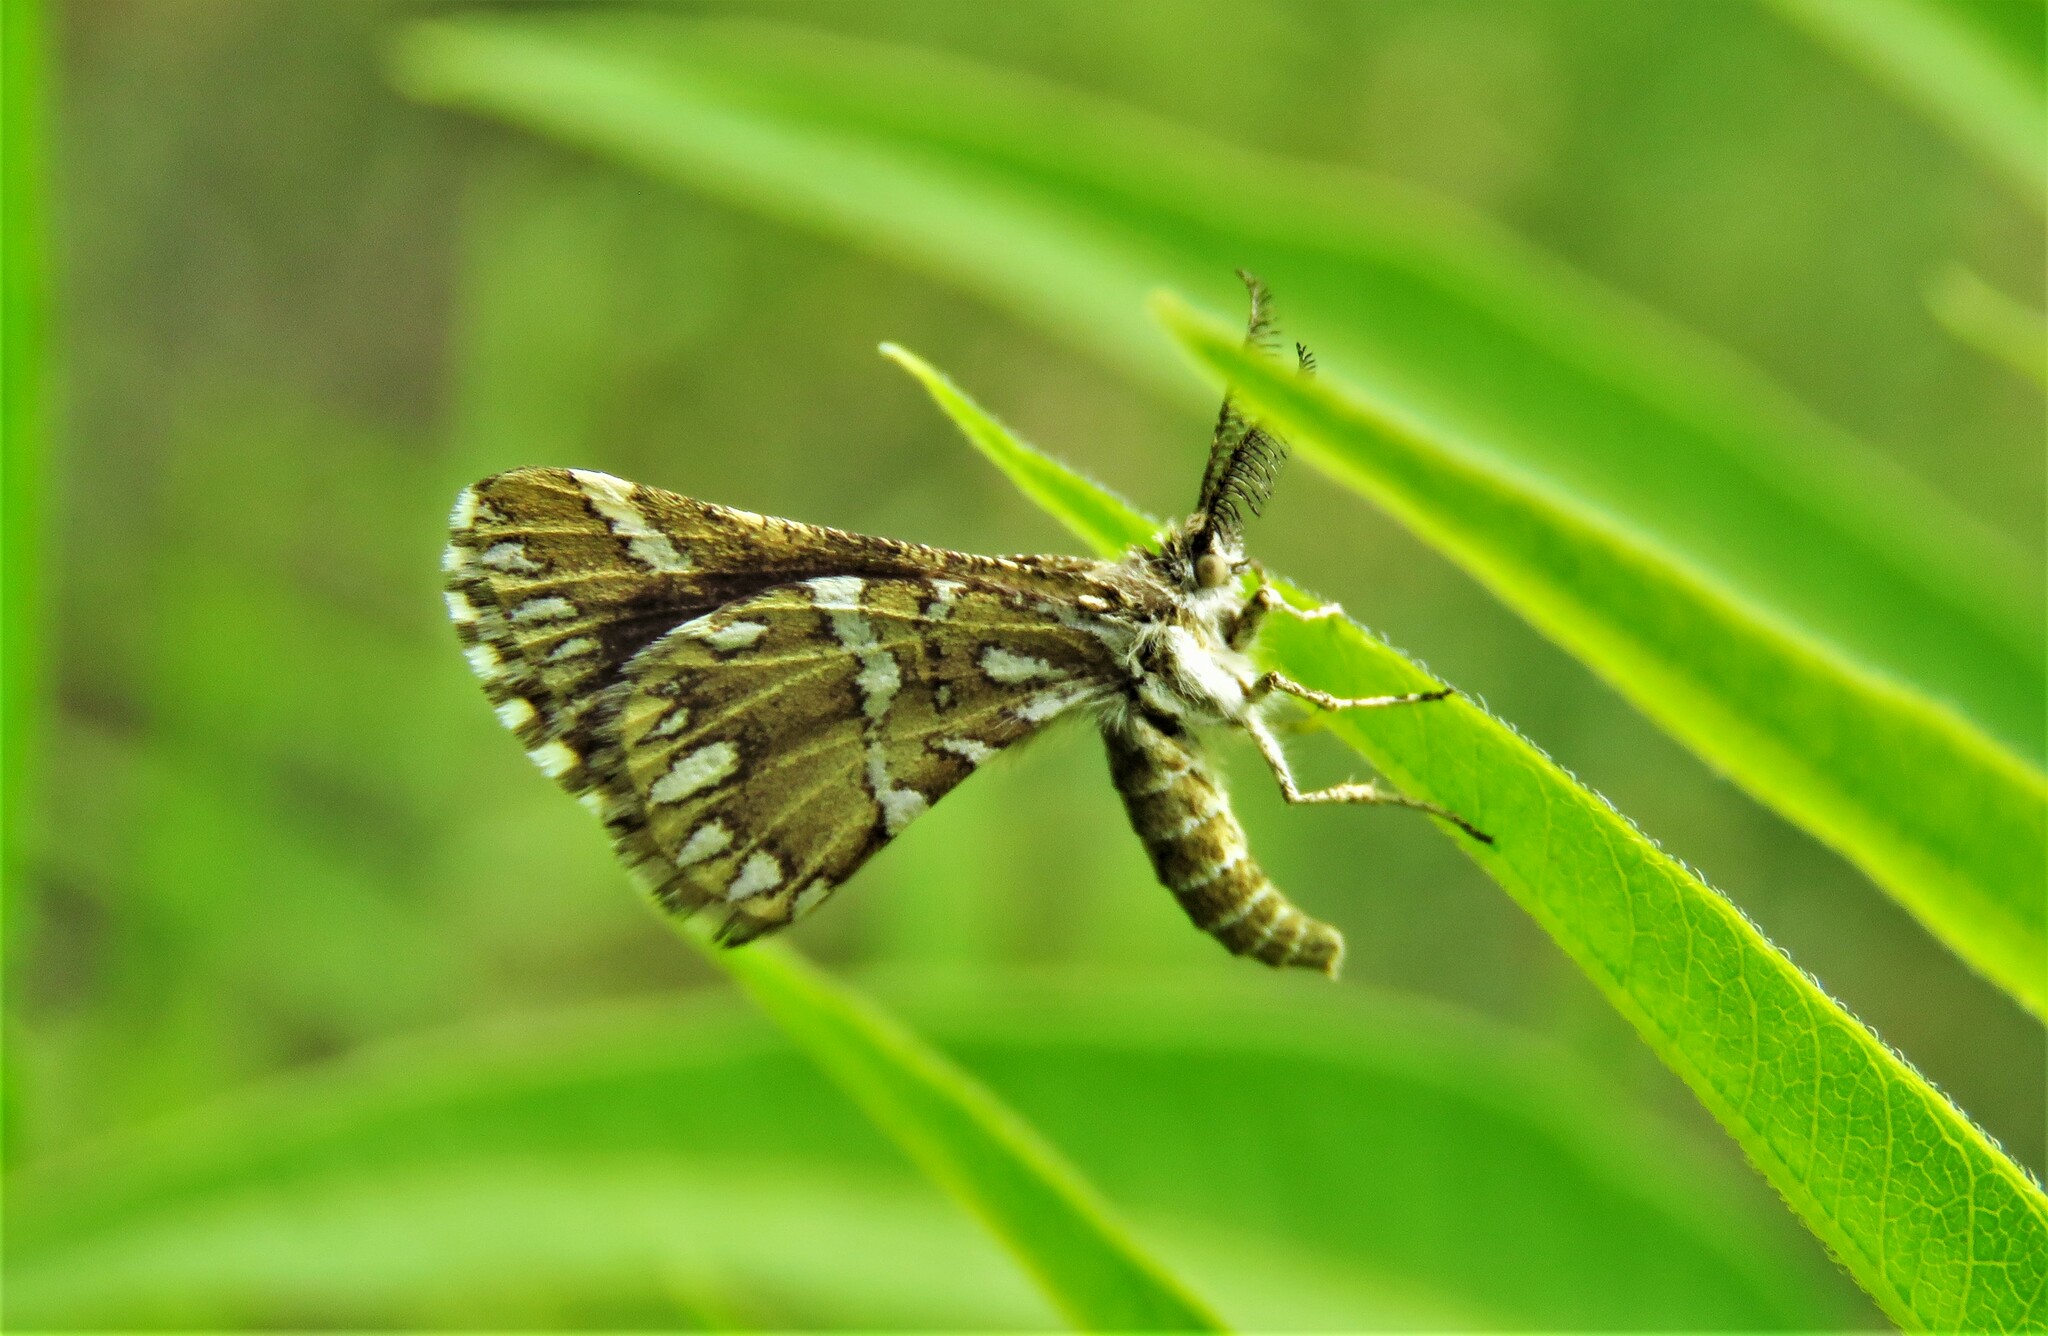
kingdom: Animalia
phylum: Arthropoda
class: Insecta
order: Lepidoptera
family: Geometridae
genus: Narraga
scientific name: Narraga fimetaria
